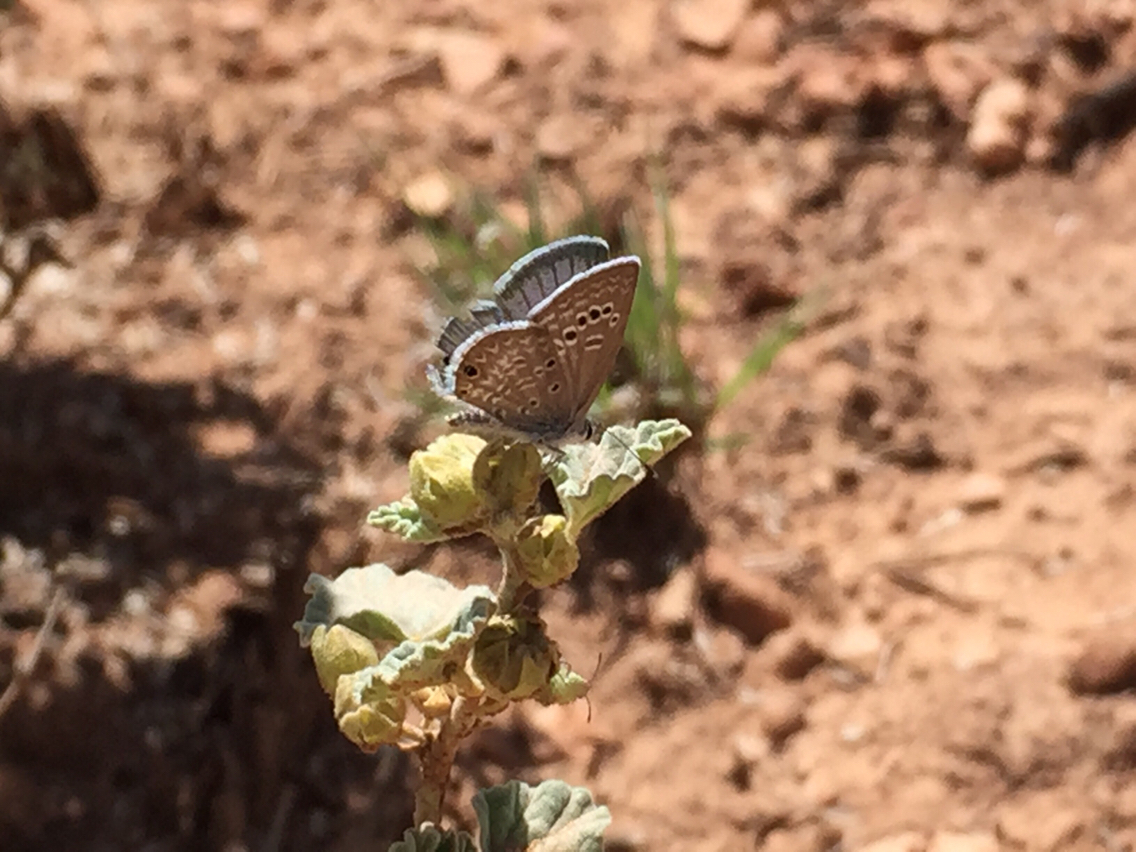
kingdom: Animalia
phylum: Arthropoda
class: Insecta
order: Lepidoptera
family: Lycaenidae
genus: Echinargus
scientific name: Echinargus isola
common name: Reakirt's blue
